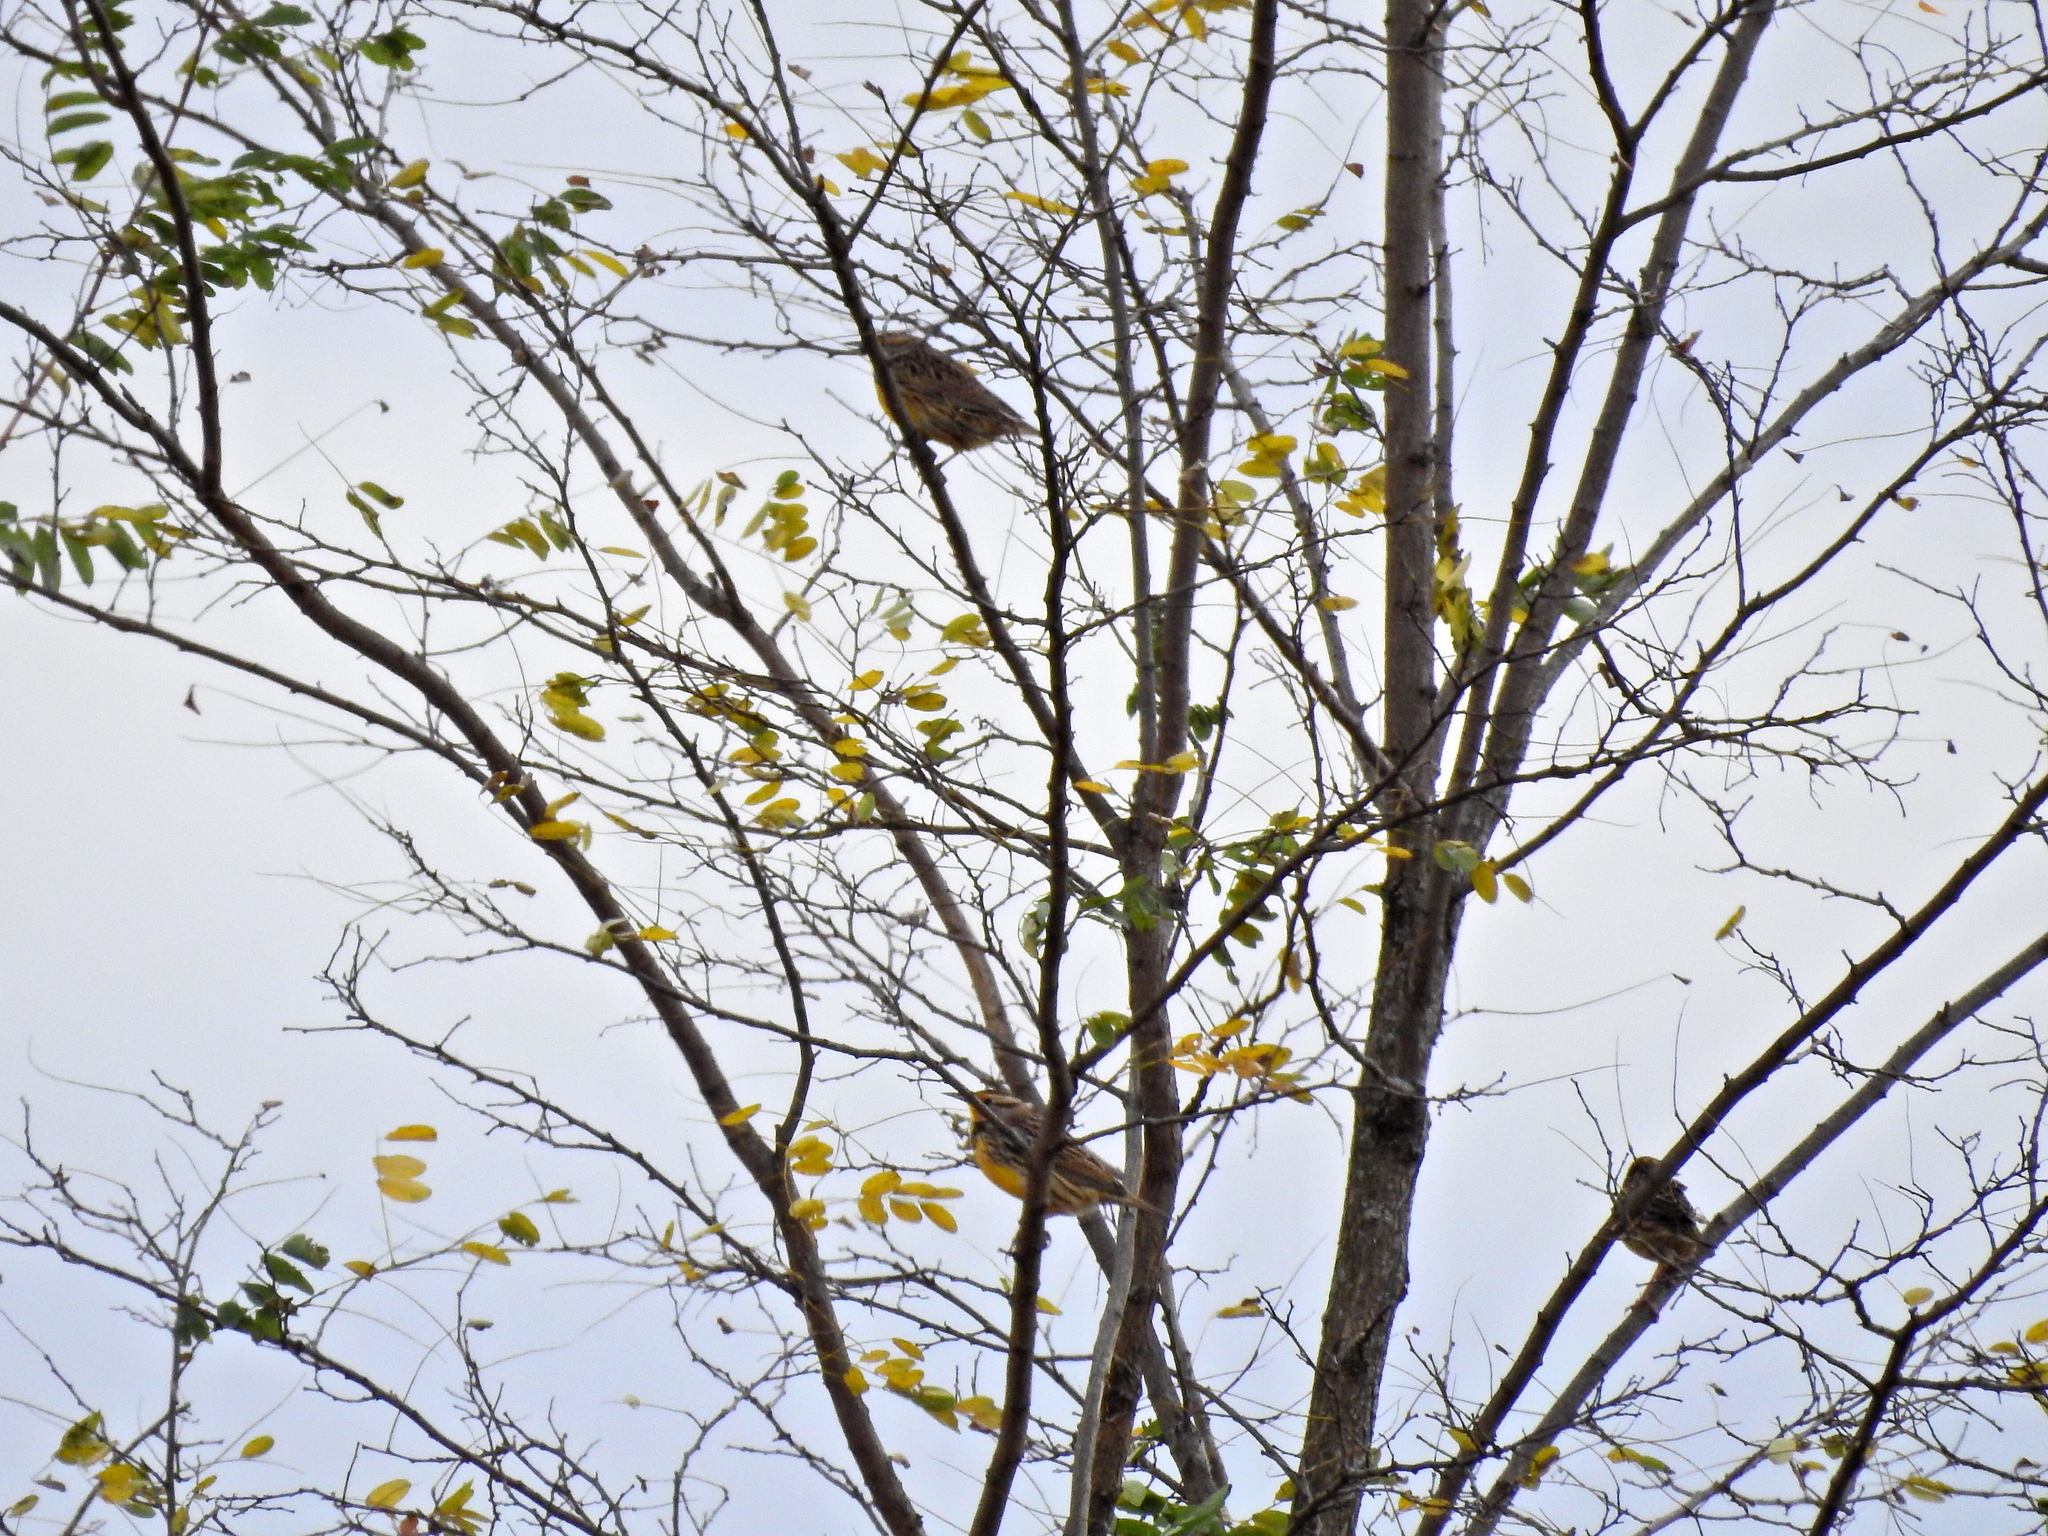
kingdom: Animalia
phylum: Chordata
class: Aves
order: Passeriformes
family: Icteridae
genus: Sturnella
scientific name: Sturnella magna
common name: Eastern meadowlark
